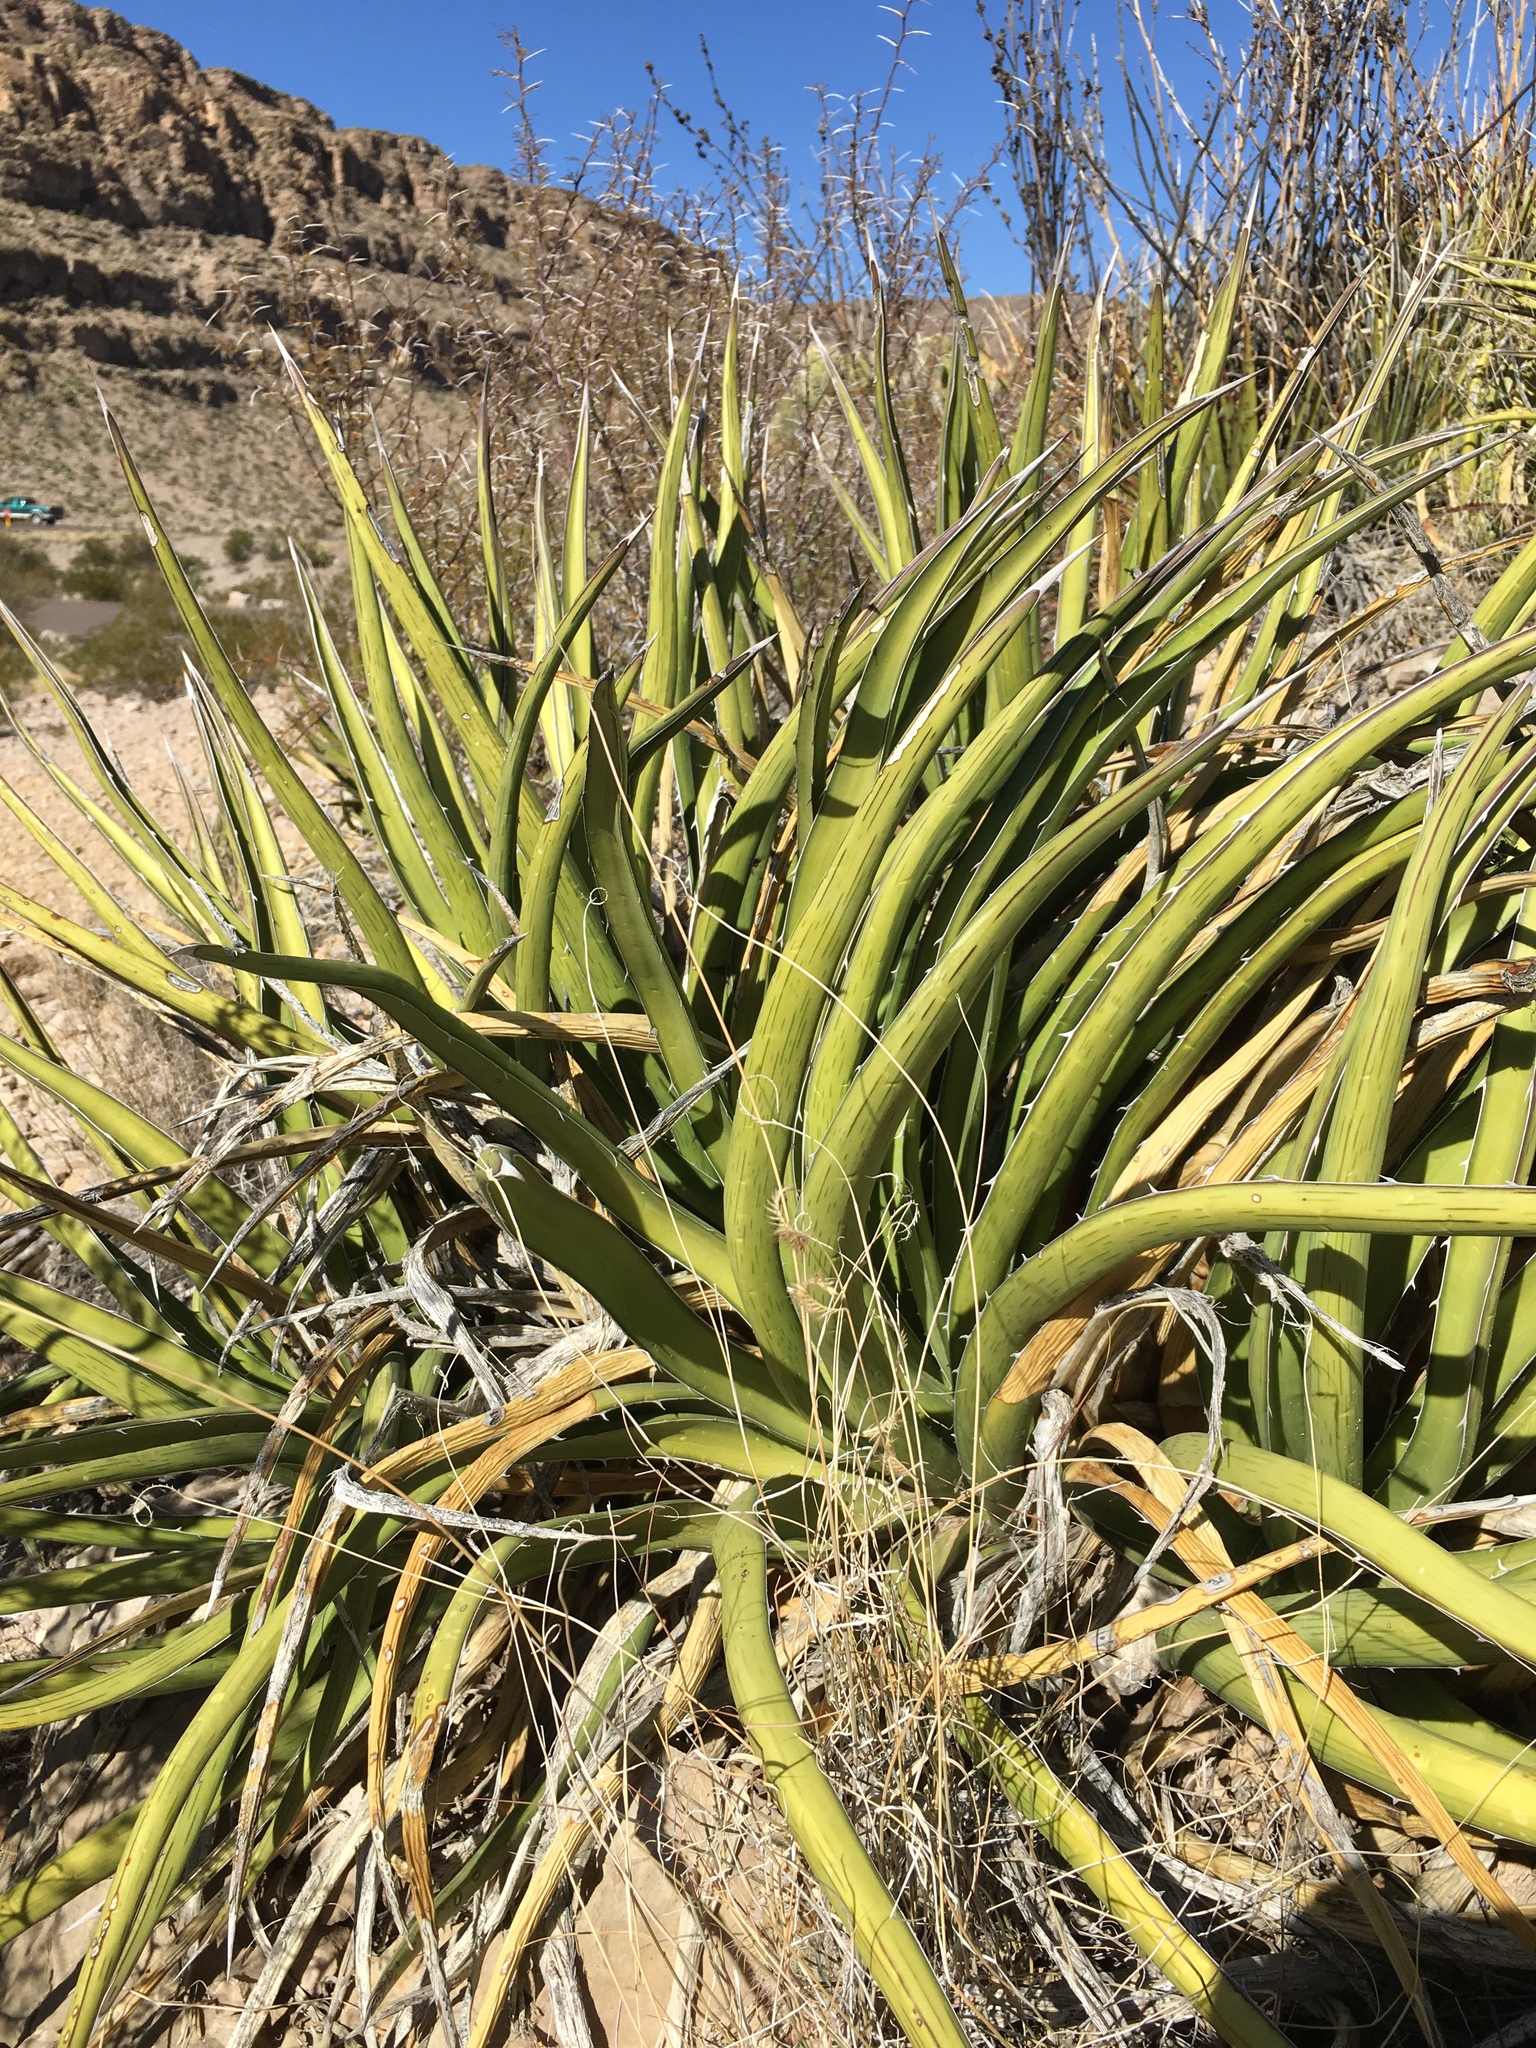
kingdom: Plantae
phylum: Tracheophyta
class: Liliopsida
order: Asparagales
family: Asparagaceae
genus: Agave
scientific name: Agave lechuguilla
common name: Lecheguilla agave
